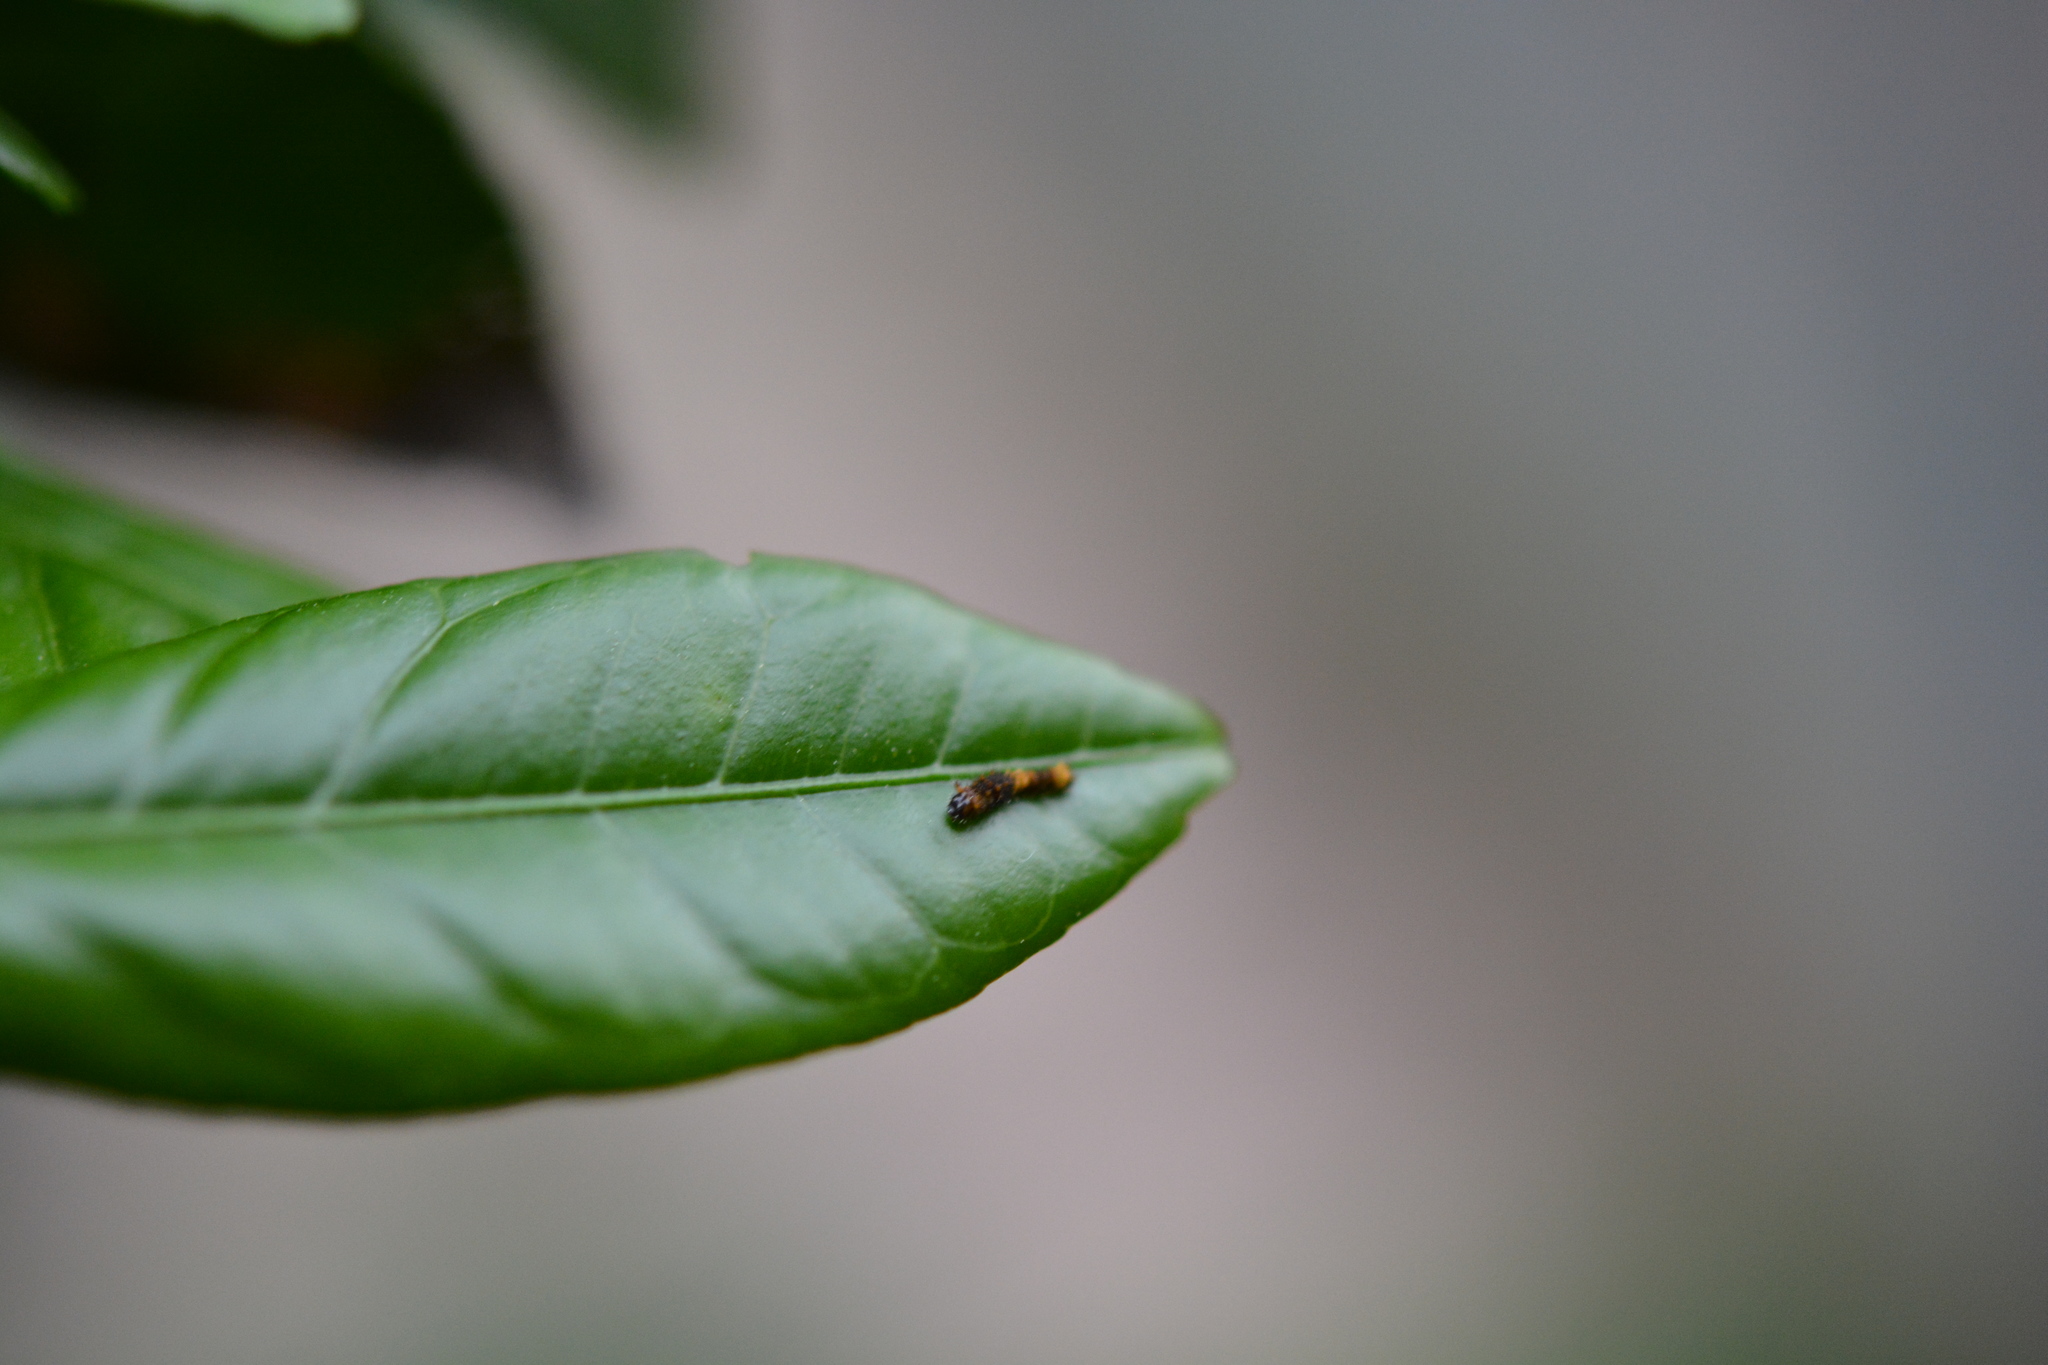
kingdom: Animalia
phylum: Arthropoda
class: Insecta
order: Lepidoptera
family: Papilionidae
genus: Papilio
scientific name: Papilio cresphontes
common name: Giant swallowtail
